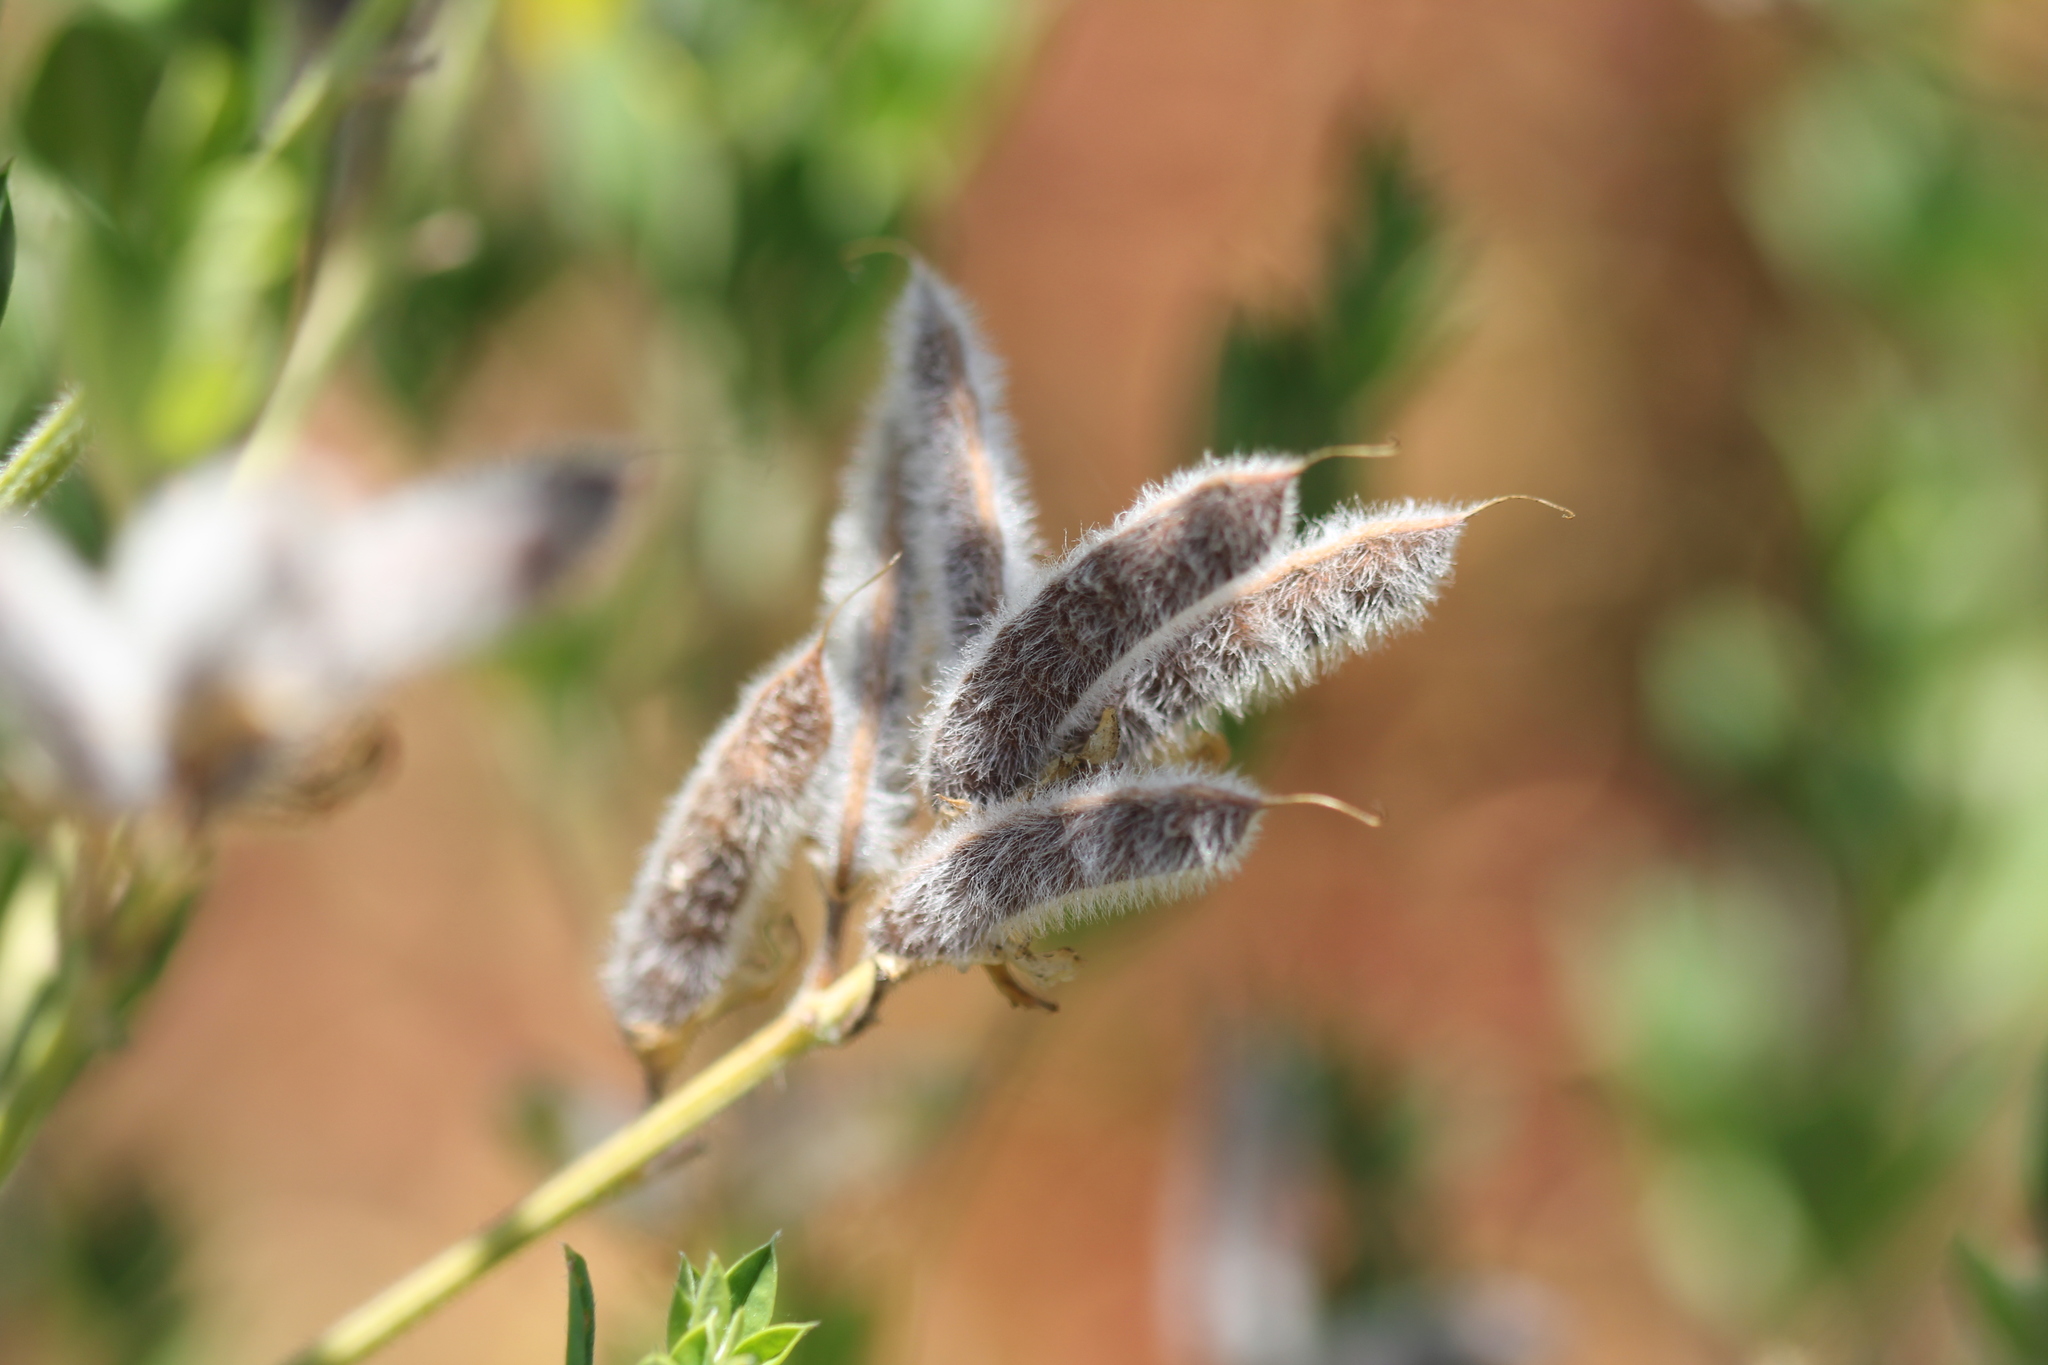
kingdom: Plantae
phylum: Tracheophyta
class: Magnoliopsida
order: Fabales
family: Fabaceae
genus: Genista
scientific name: Genista monspessulana
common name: Montpellier broom
